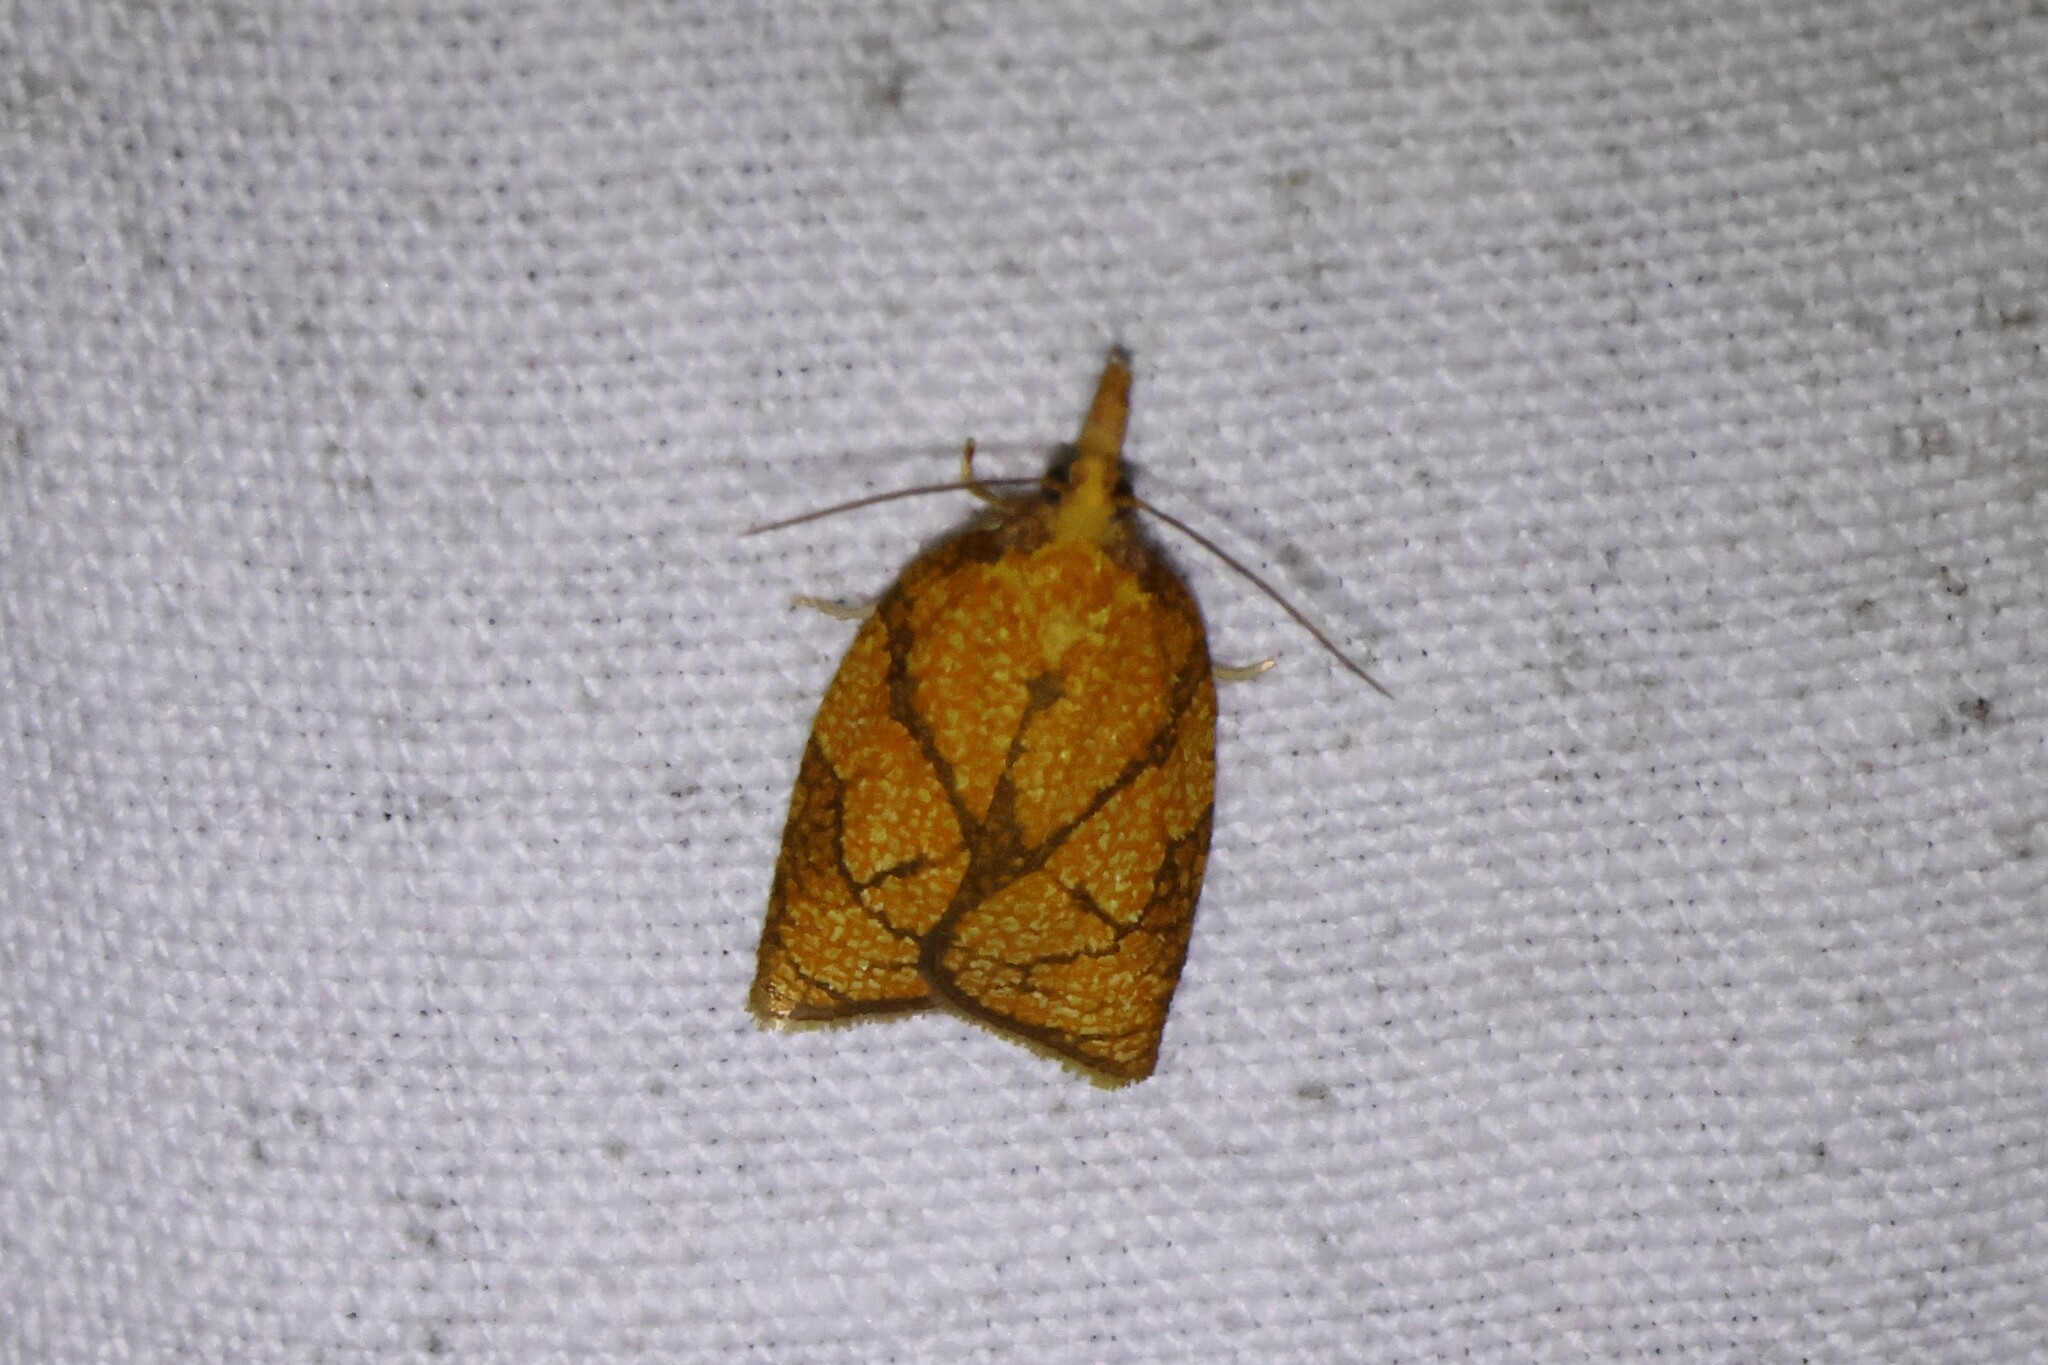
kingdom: Animalia
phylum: Arthropoda
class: Insecta
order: Lepidoptera
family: Tortricidae
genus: Cenopis
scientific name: Cenopis reticulatana
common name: Reticulated fruitworm moth
